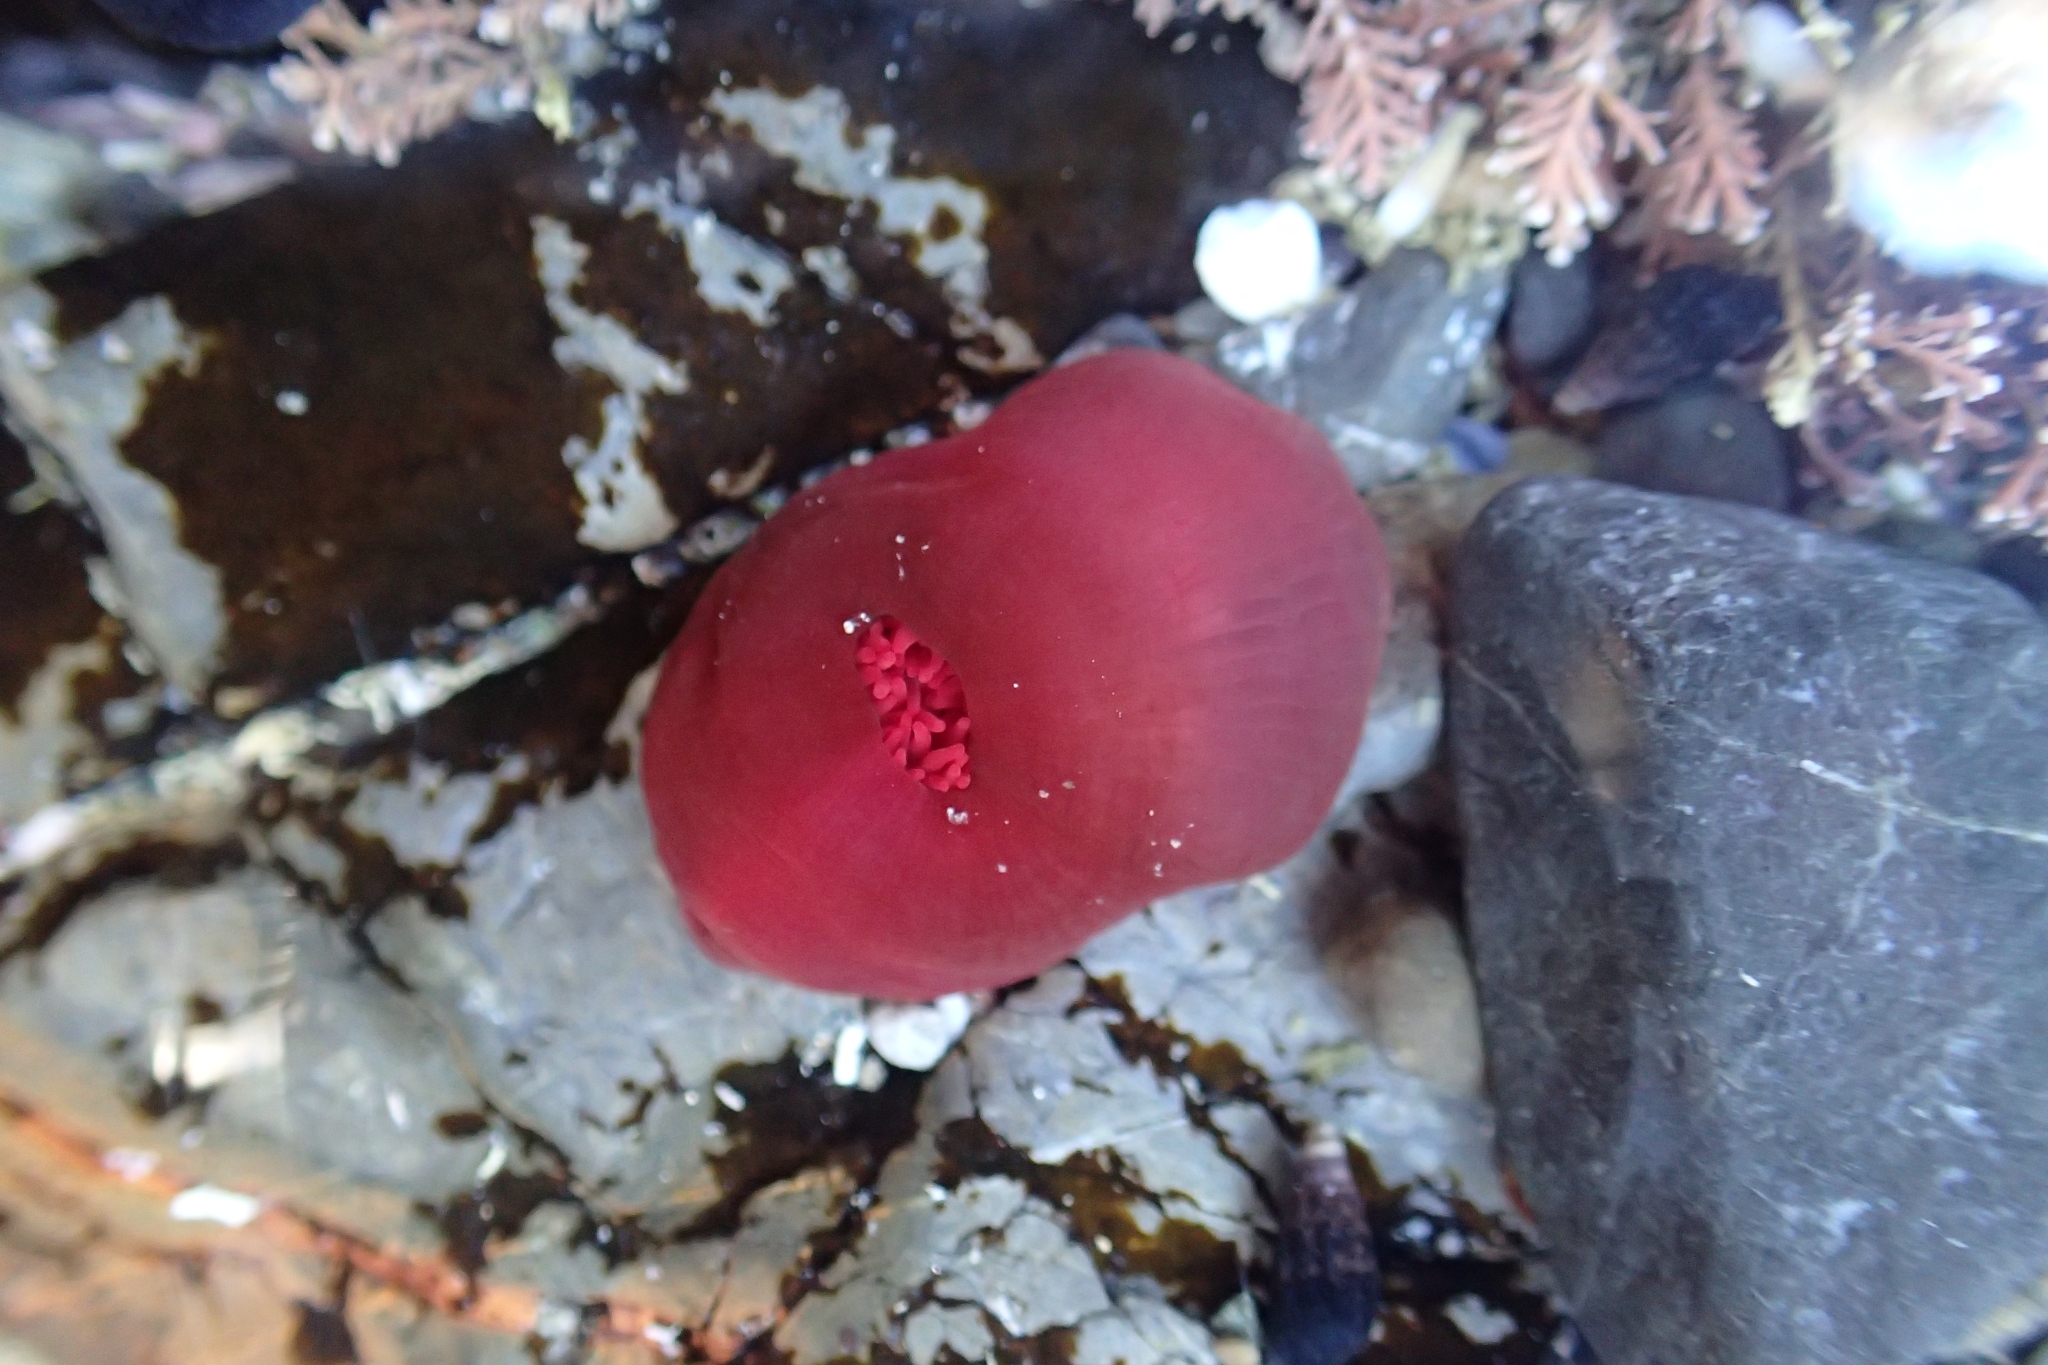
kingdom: Animalia
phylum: Cnidaria
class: Anthozoa
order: Actiniaria
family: Actiniidae
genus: Actinia
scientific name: Actinia tenebrosa
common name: Waratah anemone
